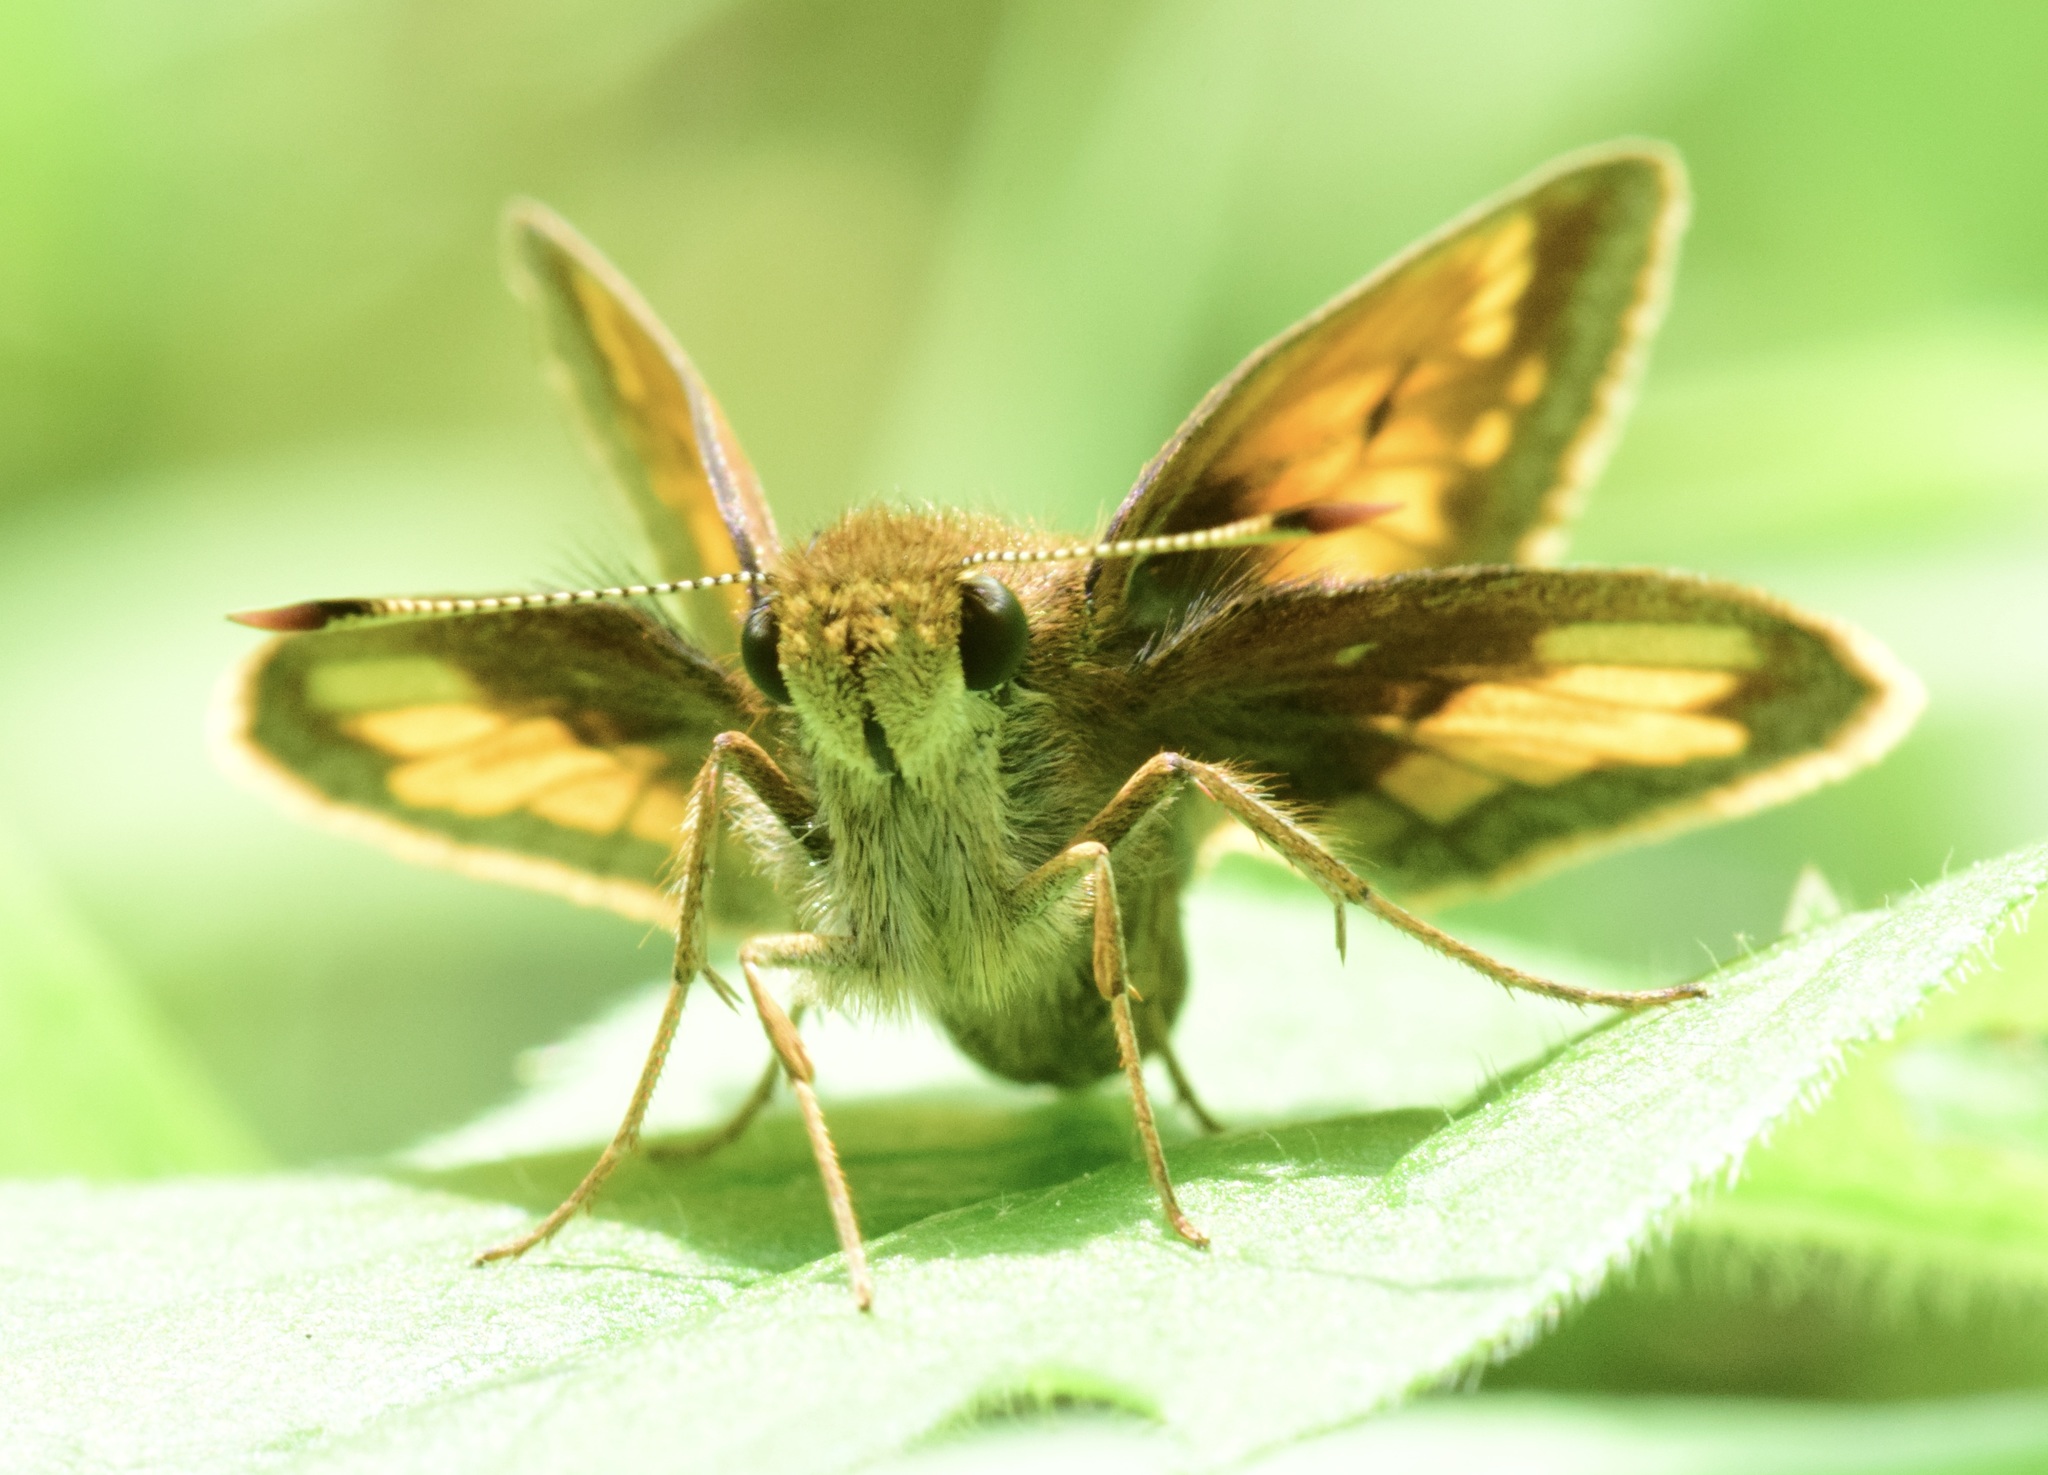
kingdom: Animalia
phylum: Arthropoda
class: Insecta
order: Lepidoptera
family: Hesperiidae
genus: Lon
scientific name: Lon hobomok
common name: Hobomok skipper
